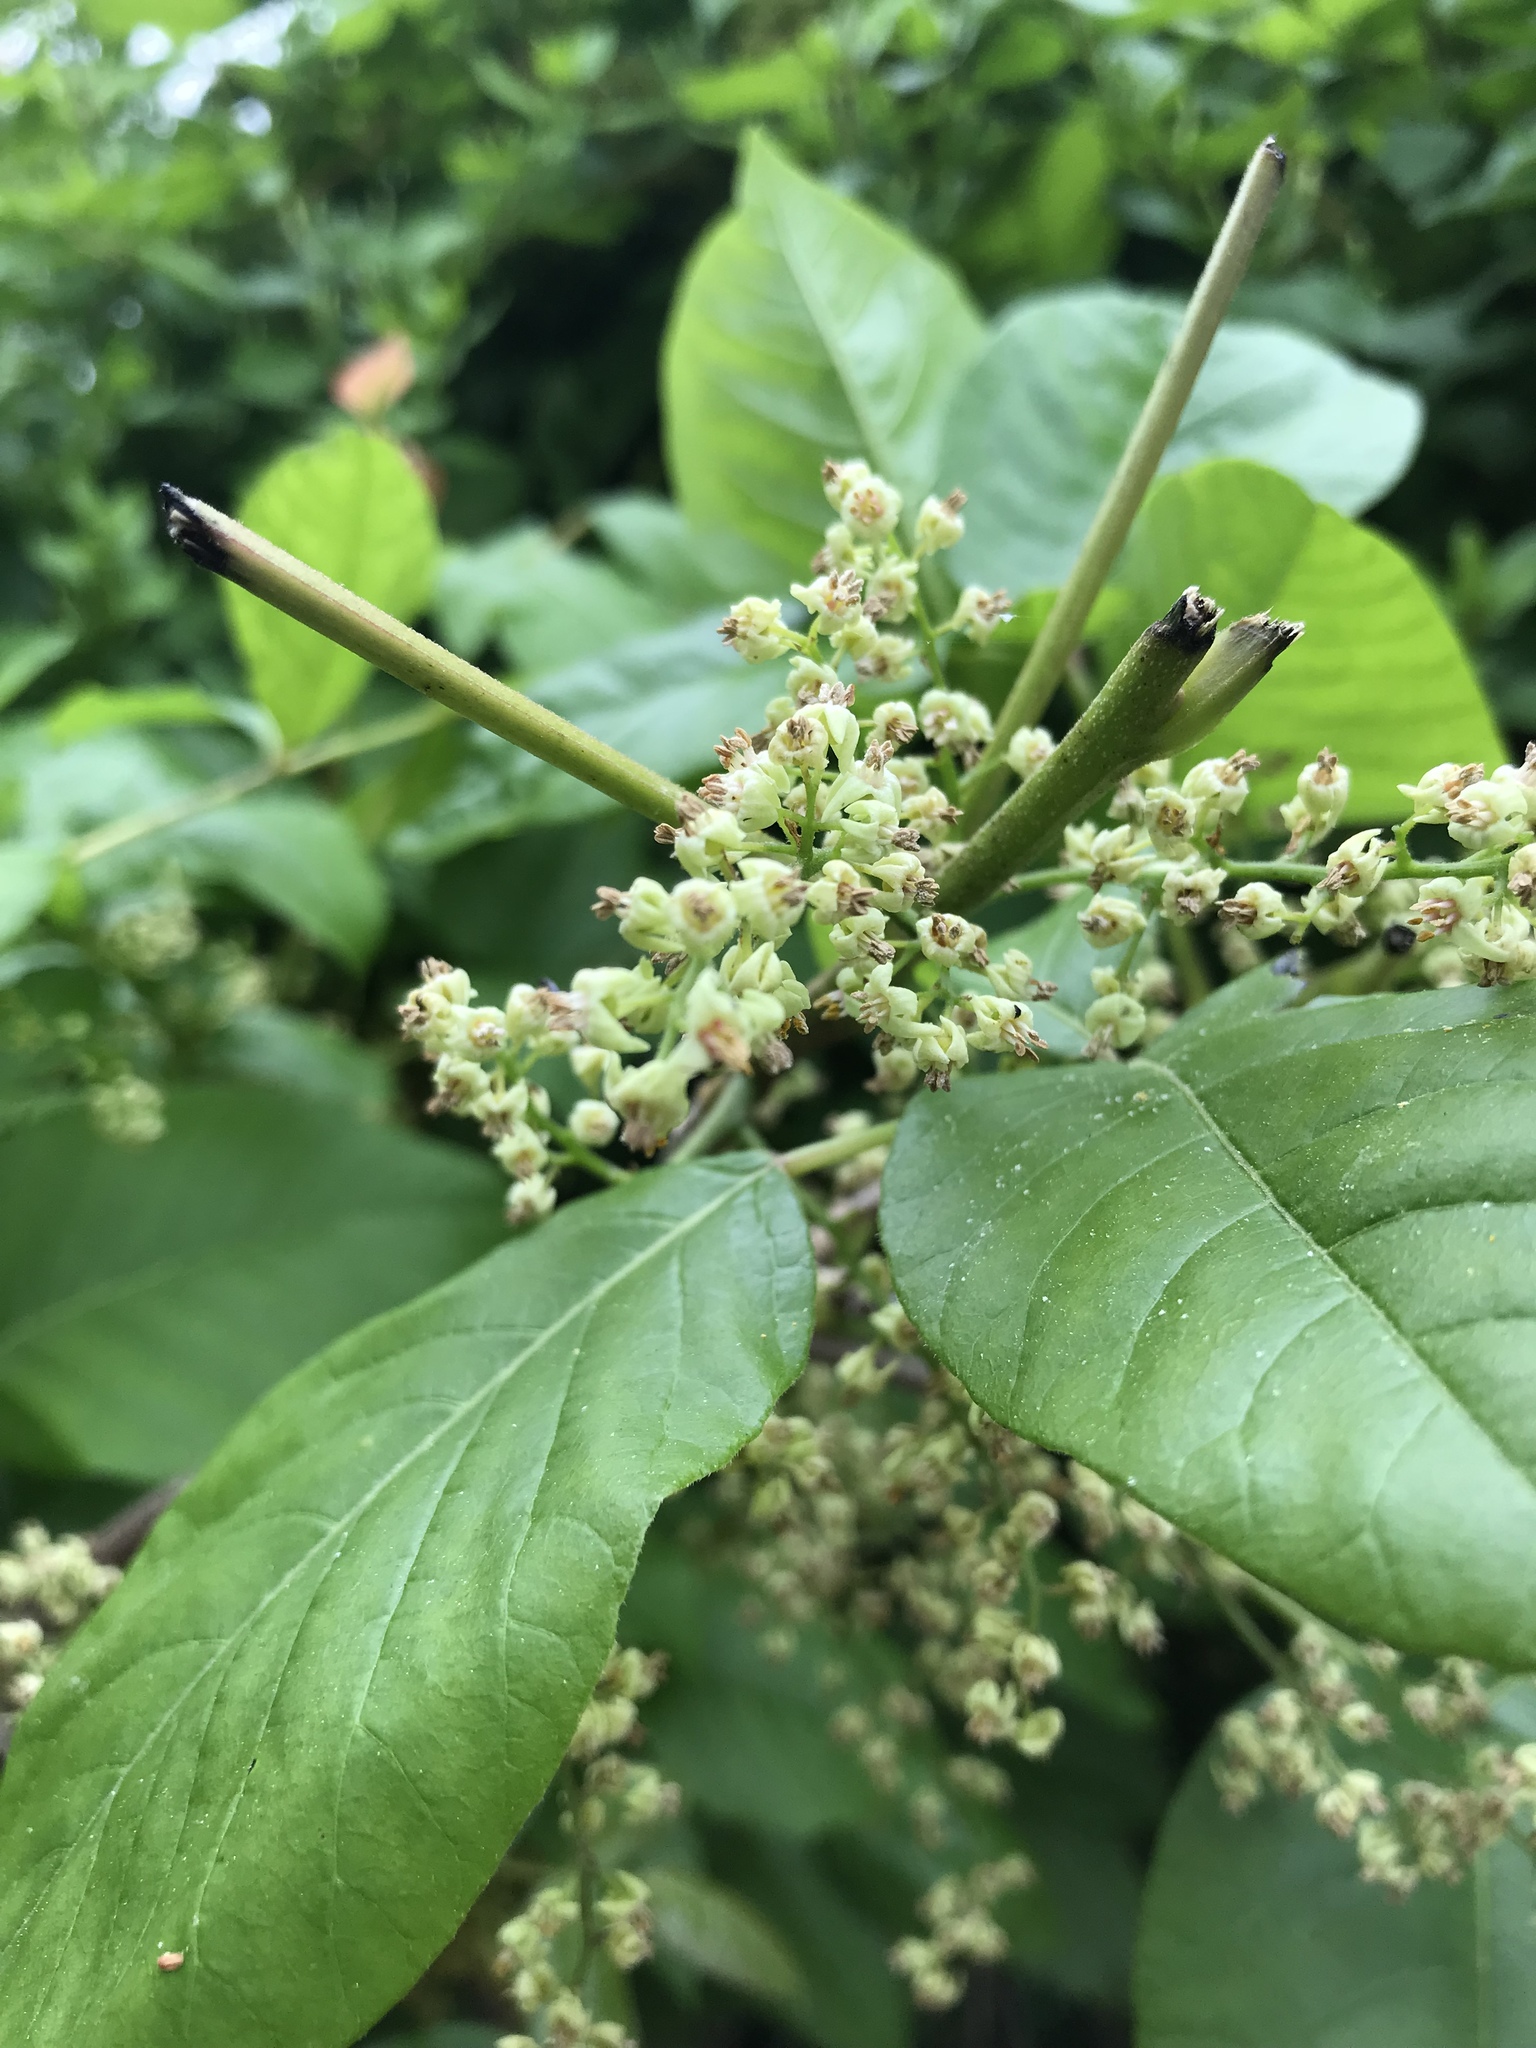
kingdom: Plantae
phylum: Tracheophyta
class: Magnoliopsida
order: Sapindales
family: Anacardiaceae
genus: Toxicodendron
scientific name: Toxicodendron radicans
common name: Poison ivy
